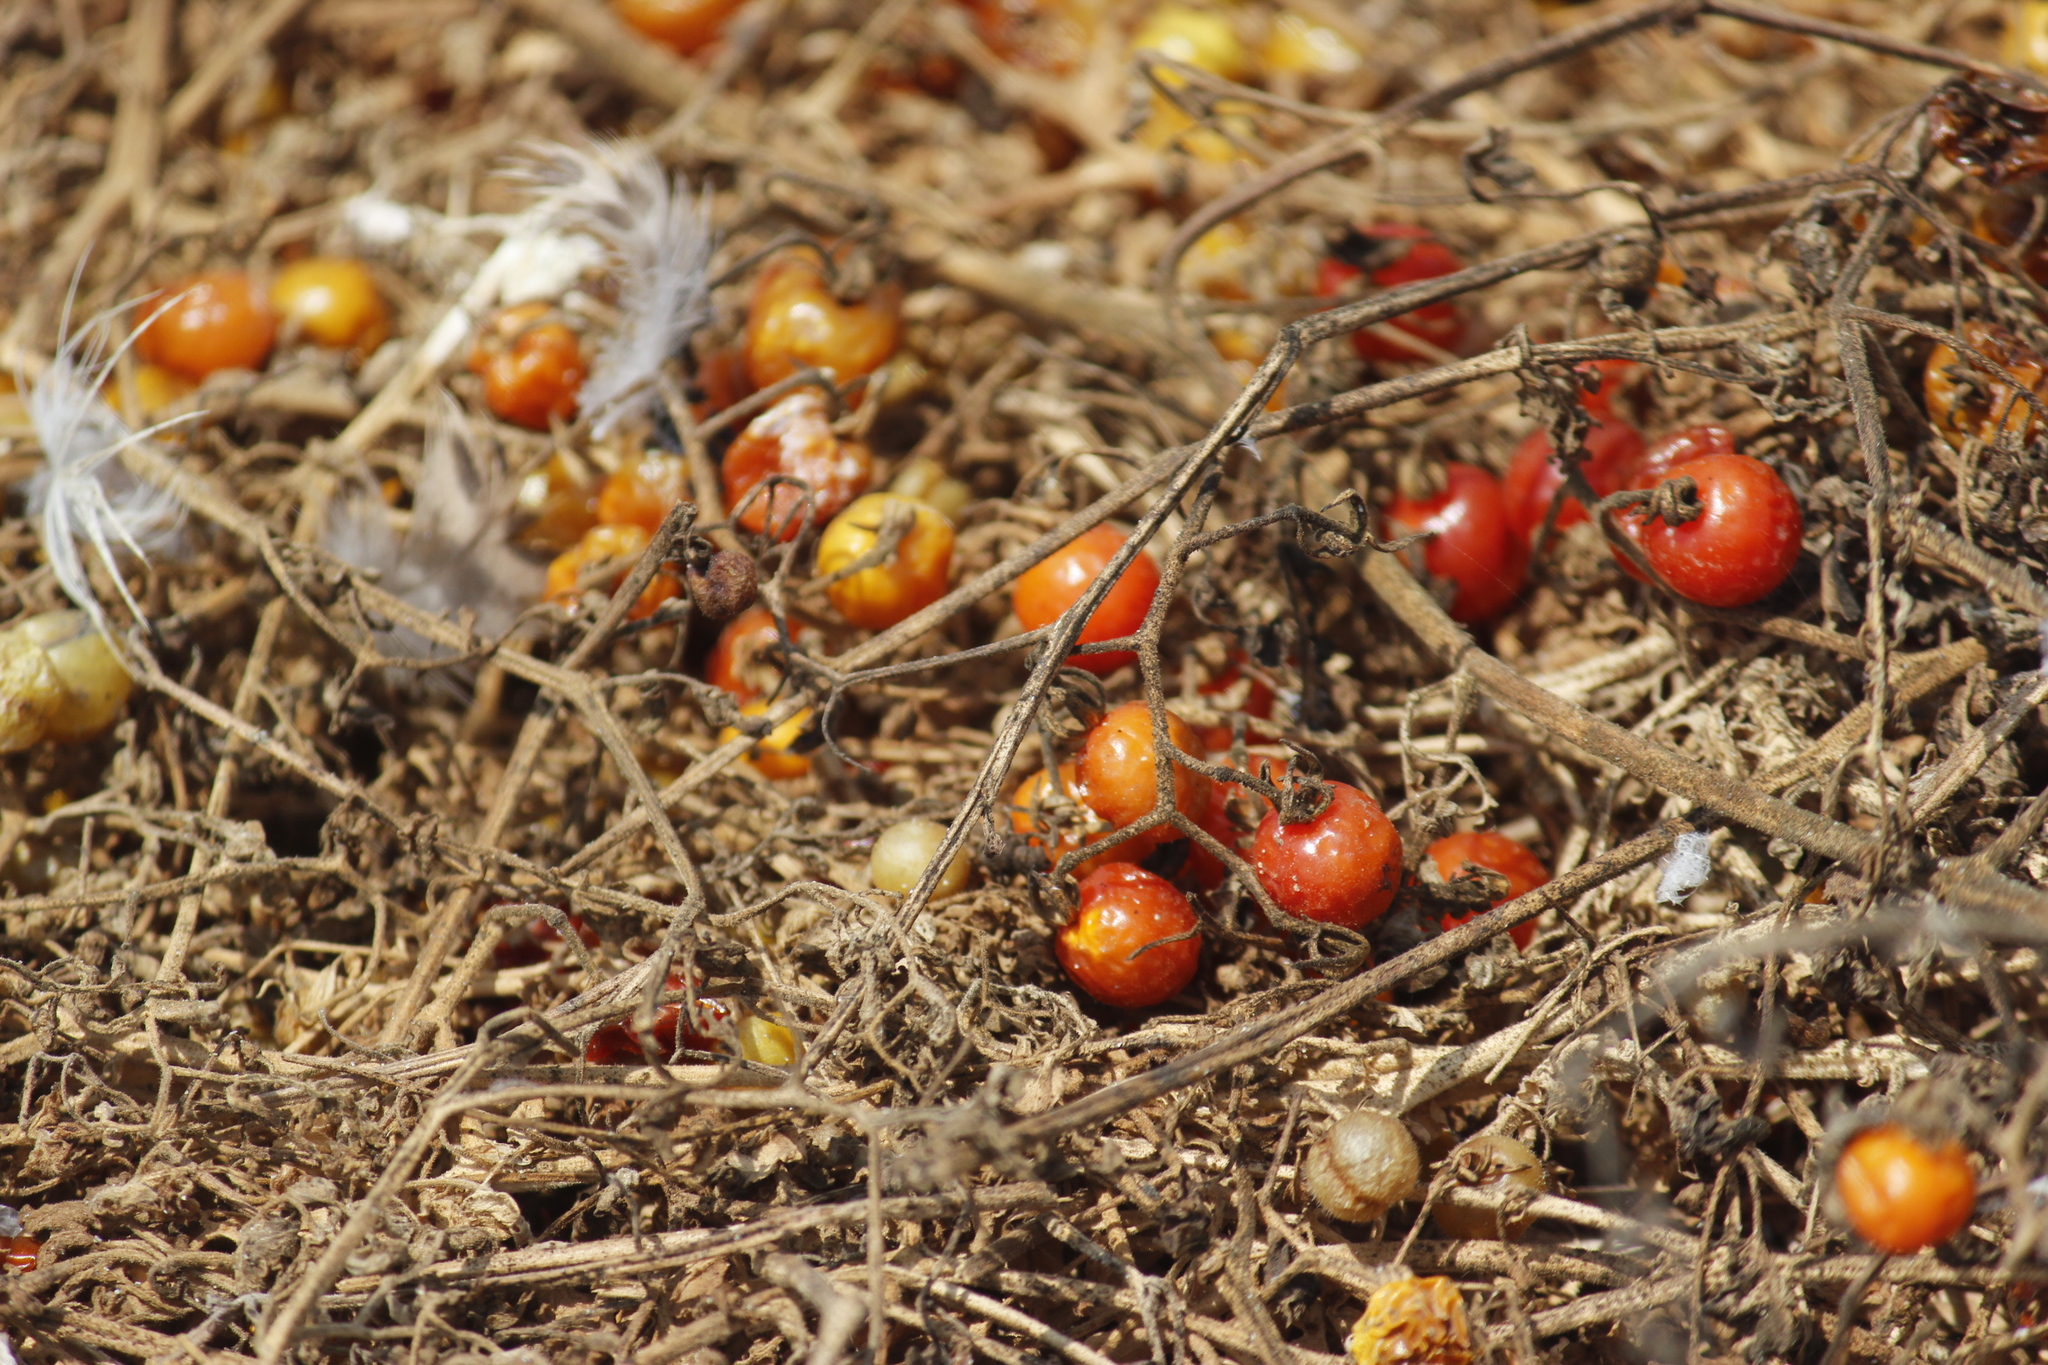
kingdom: Plantae
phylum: Tracheophyta
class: Magnoliopsida
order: Solanales
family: Solanaceae
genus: Solanum
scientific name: Solanum pimpinellifolium
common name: Currant-tomato
